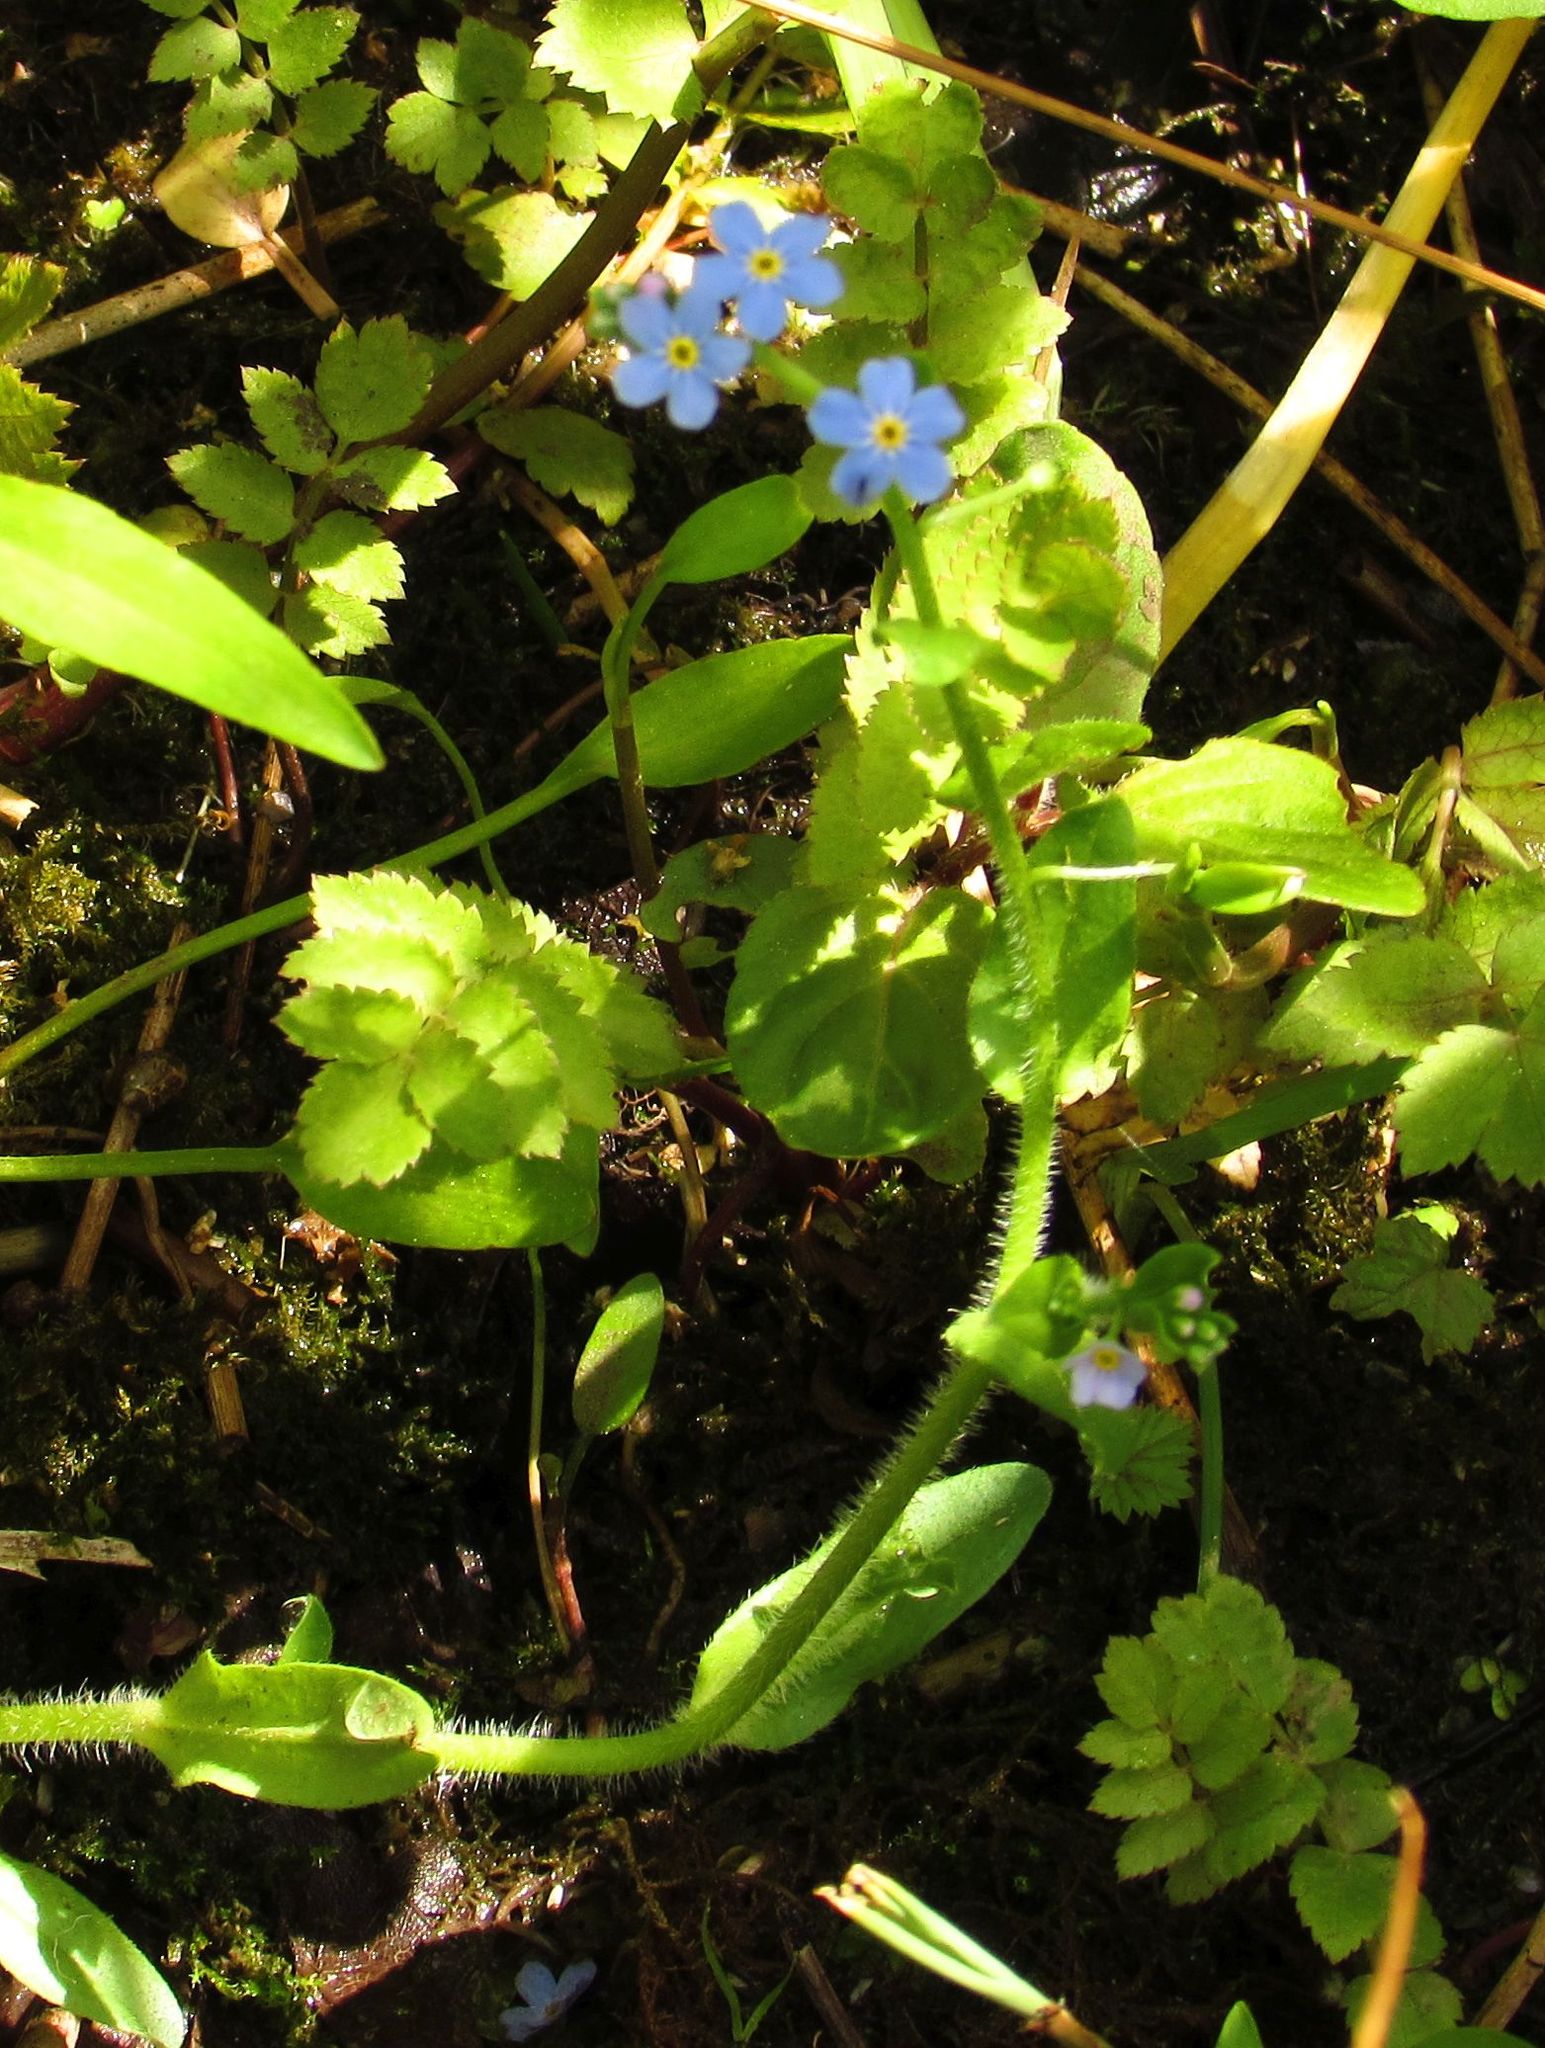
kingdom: Plantae
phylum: Tracheophyta
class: Magnoliopsida
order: Boraginales
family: Boraginaceae
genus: Myosotis
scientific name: Myosotis scorpioides
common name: Water forget-me-not
